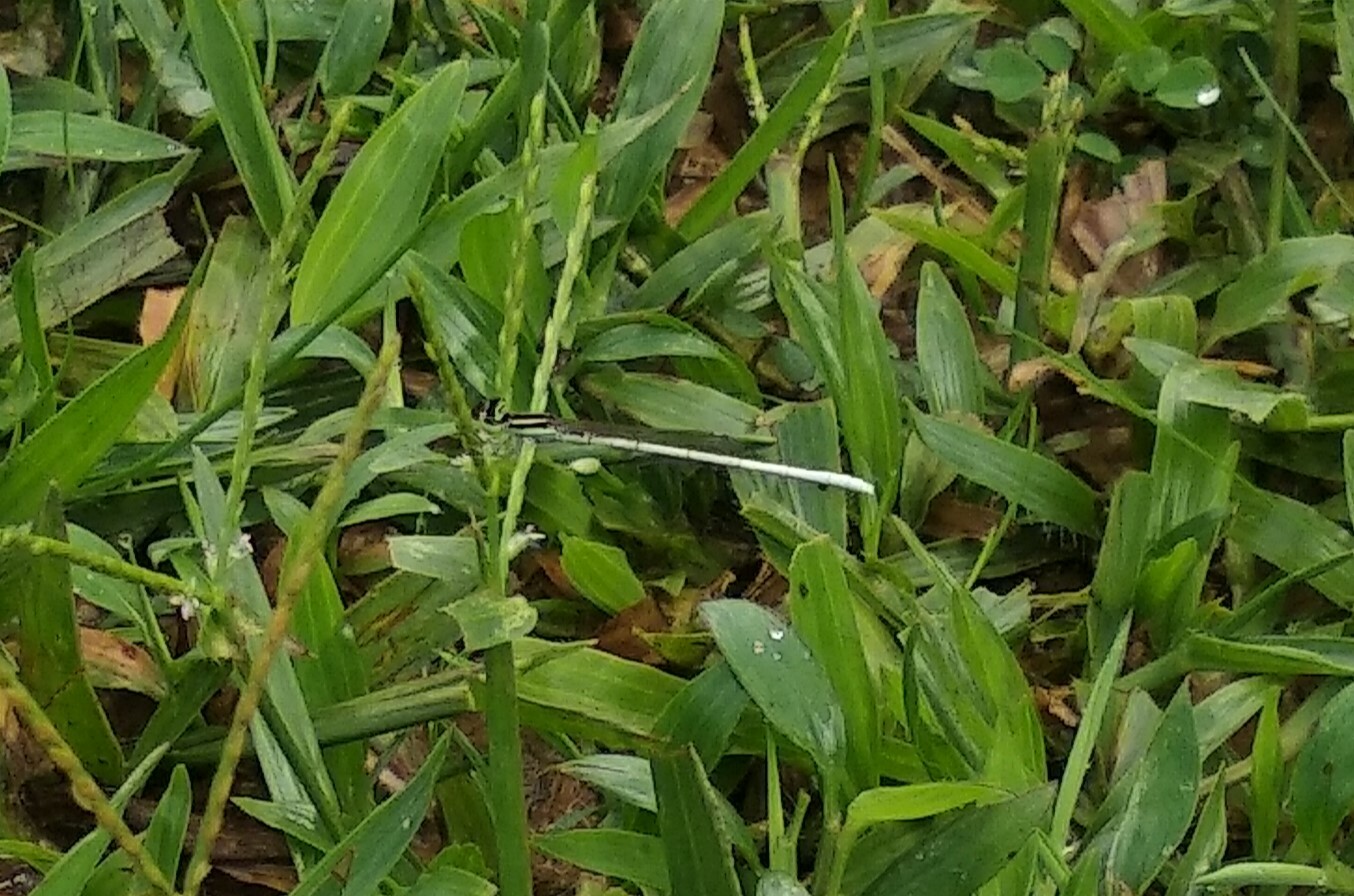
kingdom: Animalia
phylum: Arthropoda
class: Insecta
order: Odonata
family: Coenagrionidae
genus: Agriocnemis
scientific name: Agriocnemis lacteola
